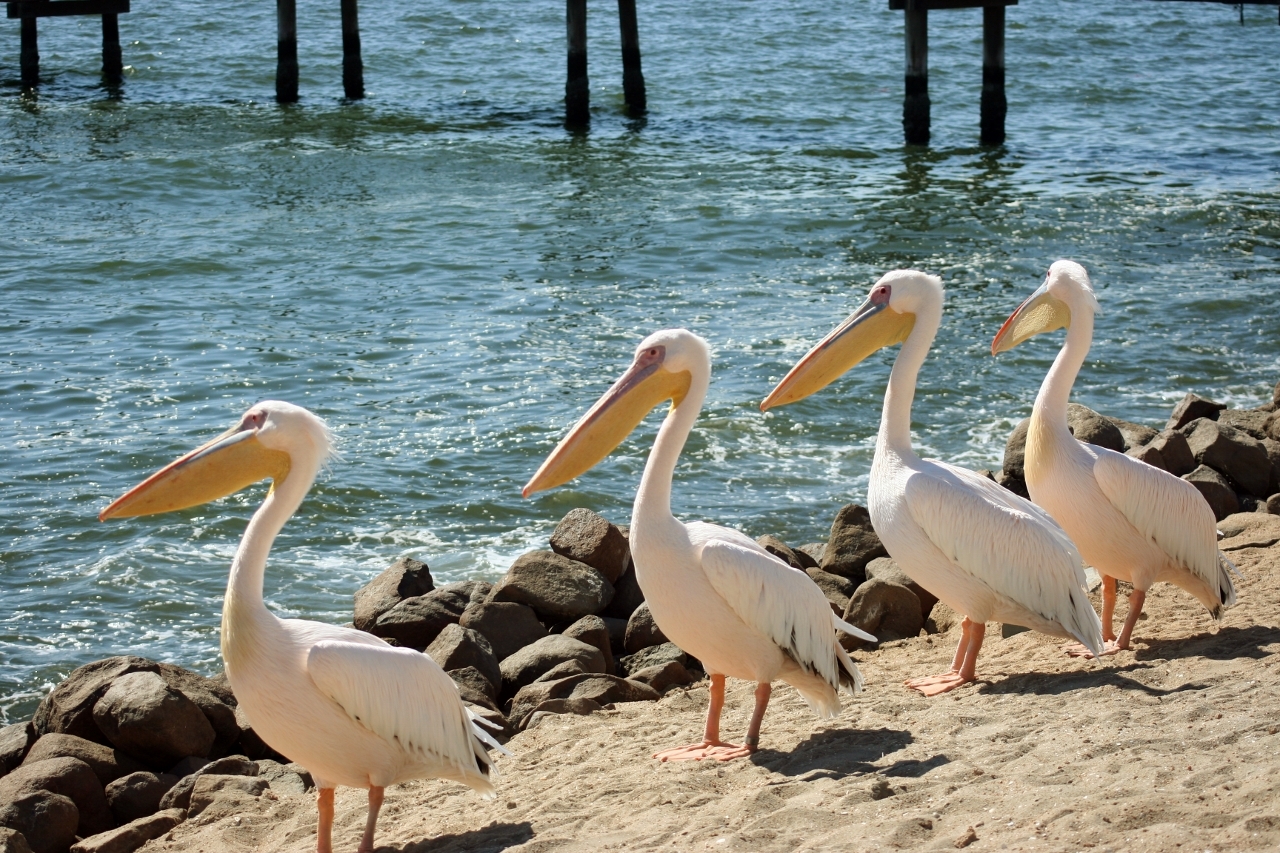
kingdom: Animalia
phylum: Chordata
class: Aves
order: Pelecaniformes
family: Pelecanidae
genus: Pelecanus
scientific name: Pelecanus onocrotalus
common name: Great white pelican
